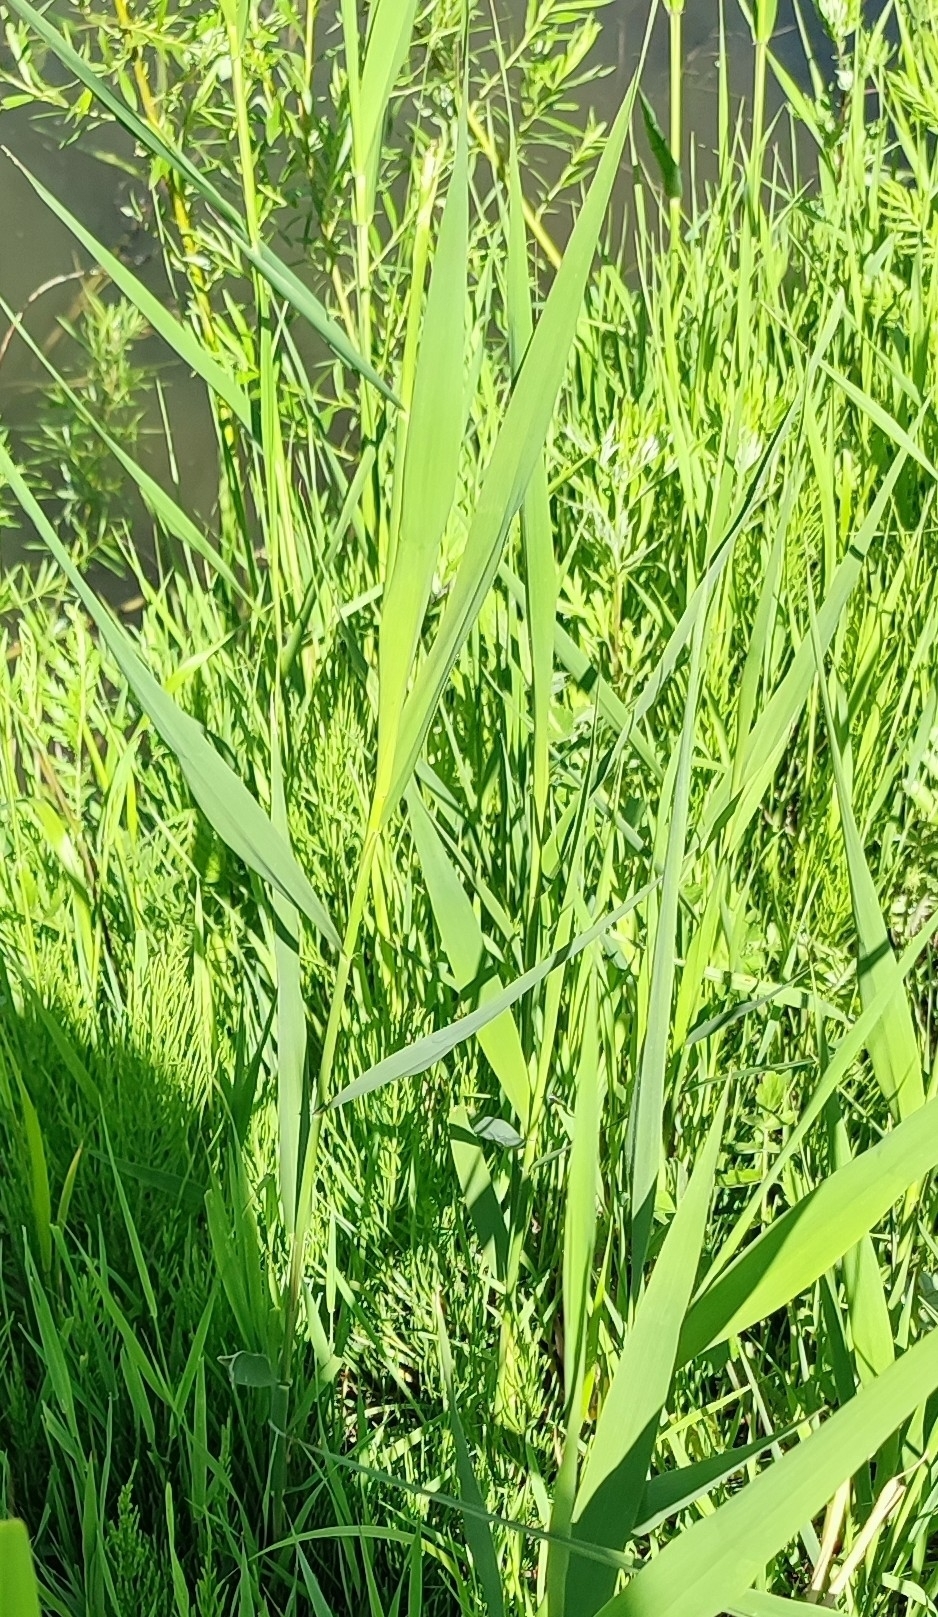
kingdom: Plantae
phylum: Tracheophyta
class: Liliopsida
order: Poales
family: Poaceae
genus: Phragmites
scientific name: Phragmites australis
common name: Common reed
